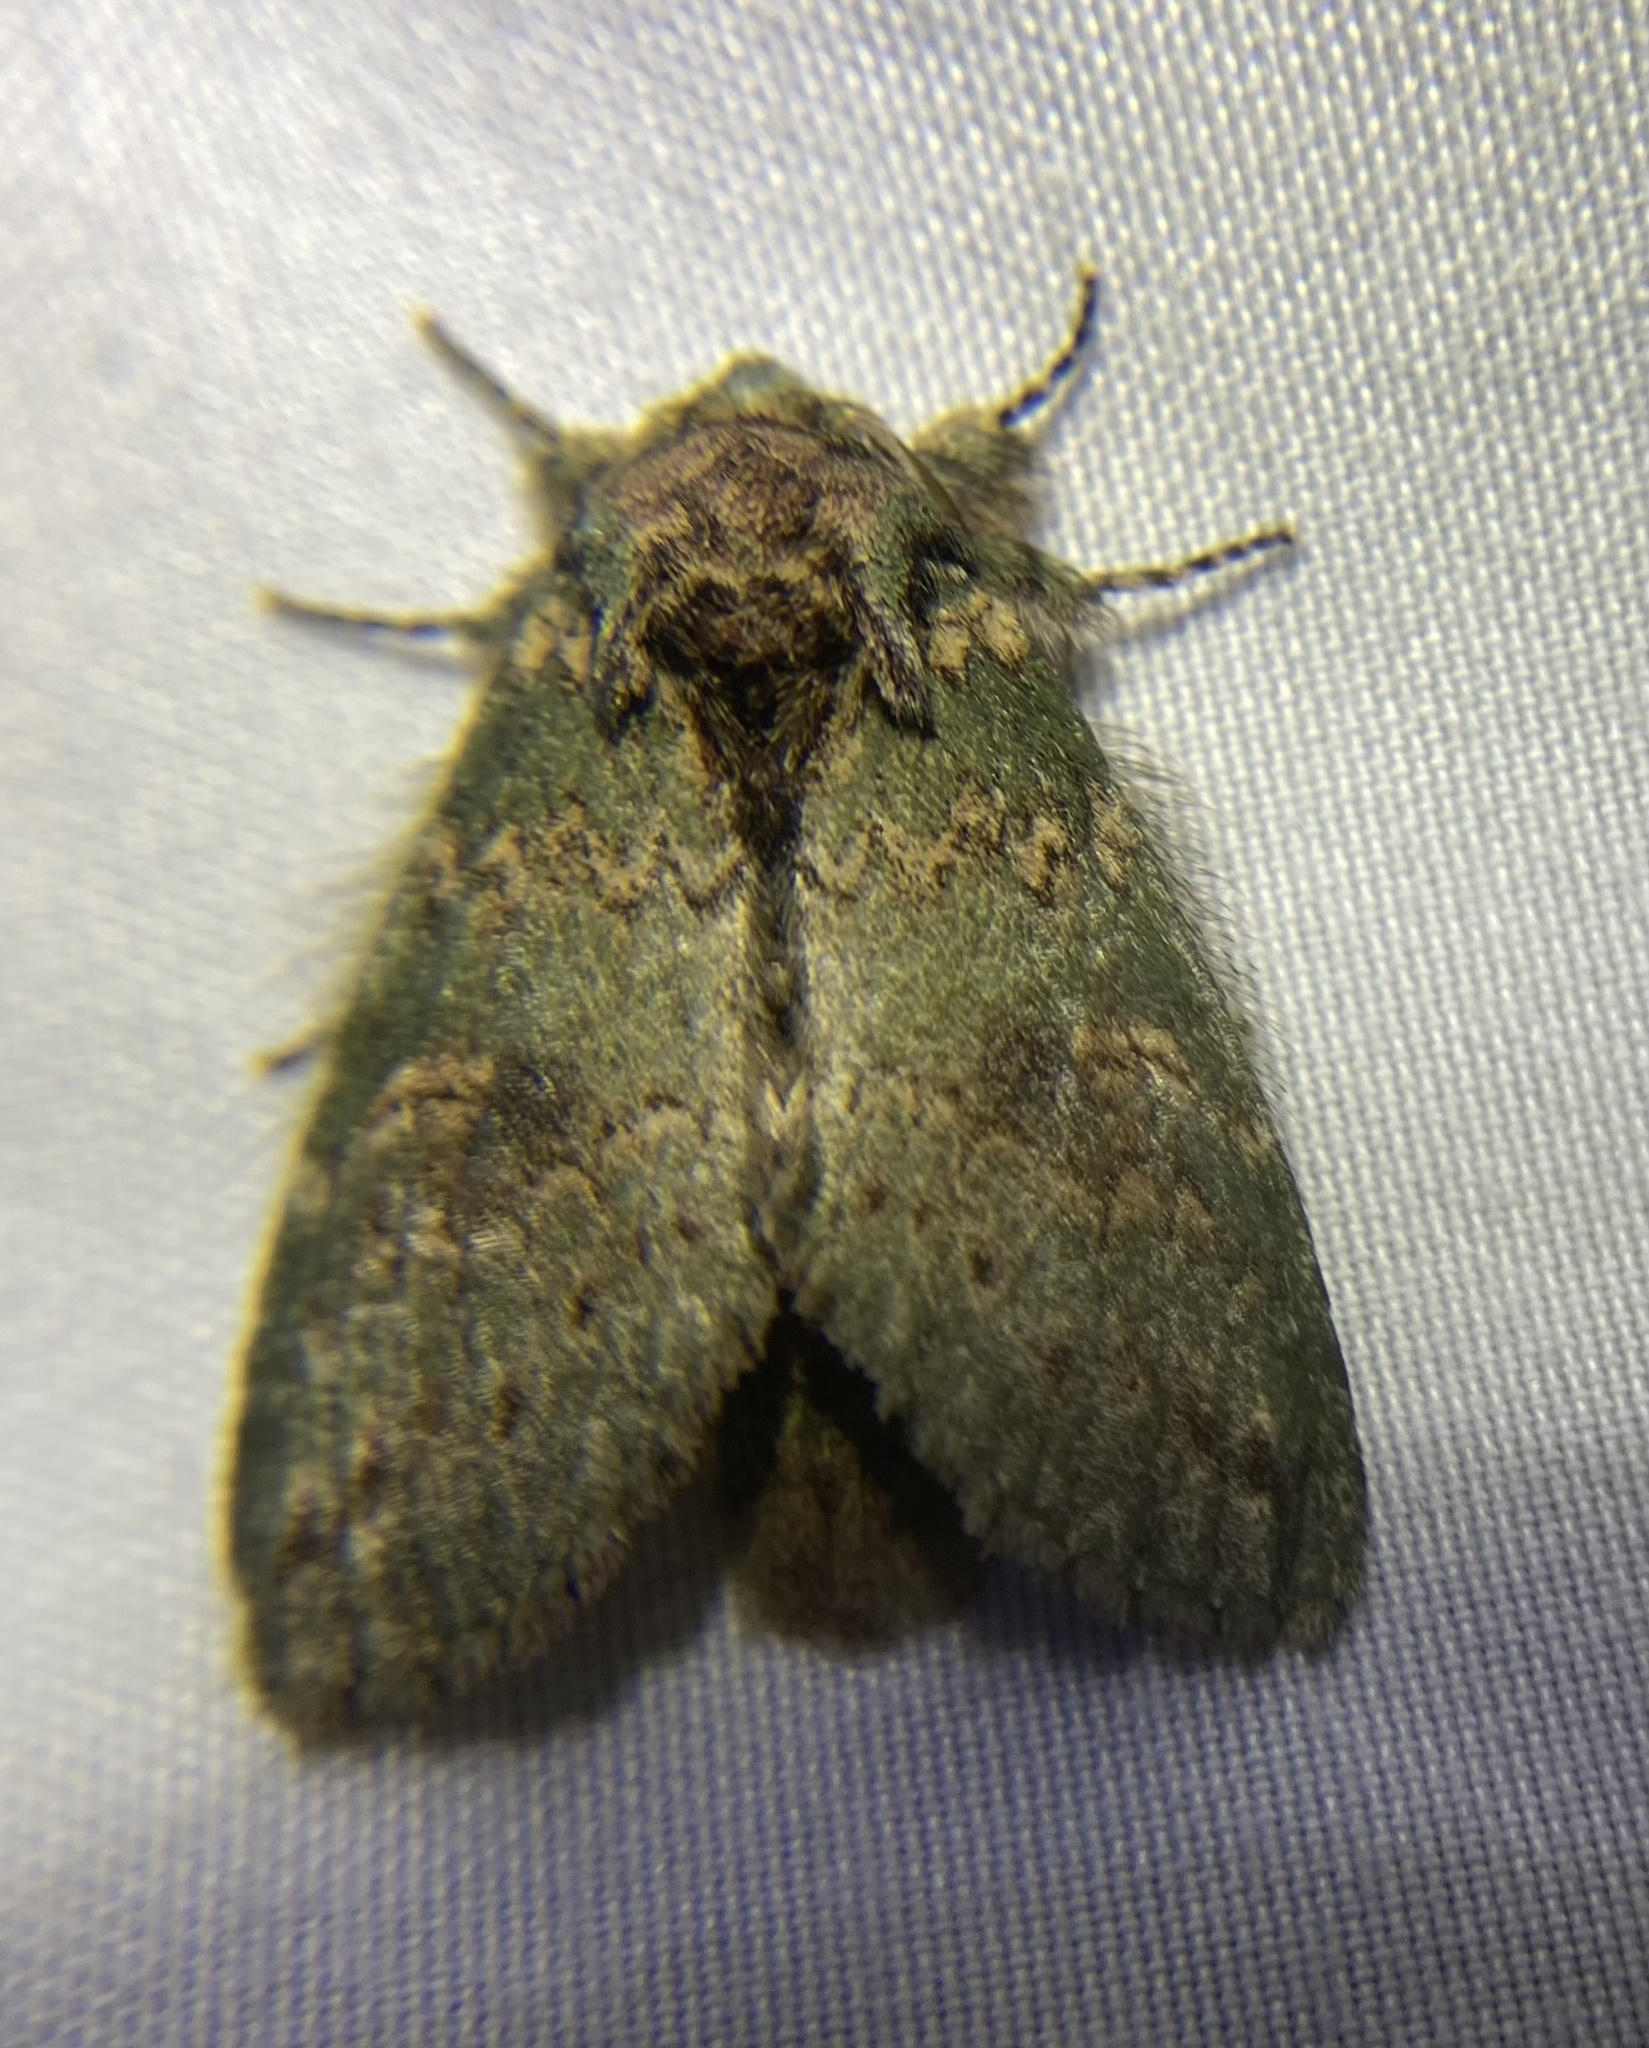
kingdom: Animalia
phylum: Arthropoda
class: Insecta
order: Lepidoptera
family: Notodontidae
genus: Disphragis
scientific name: Disphragis Cecrita biundata
